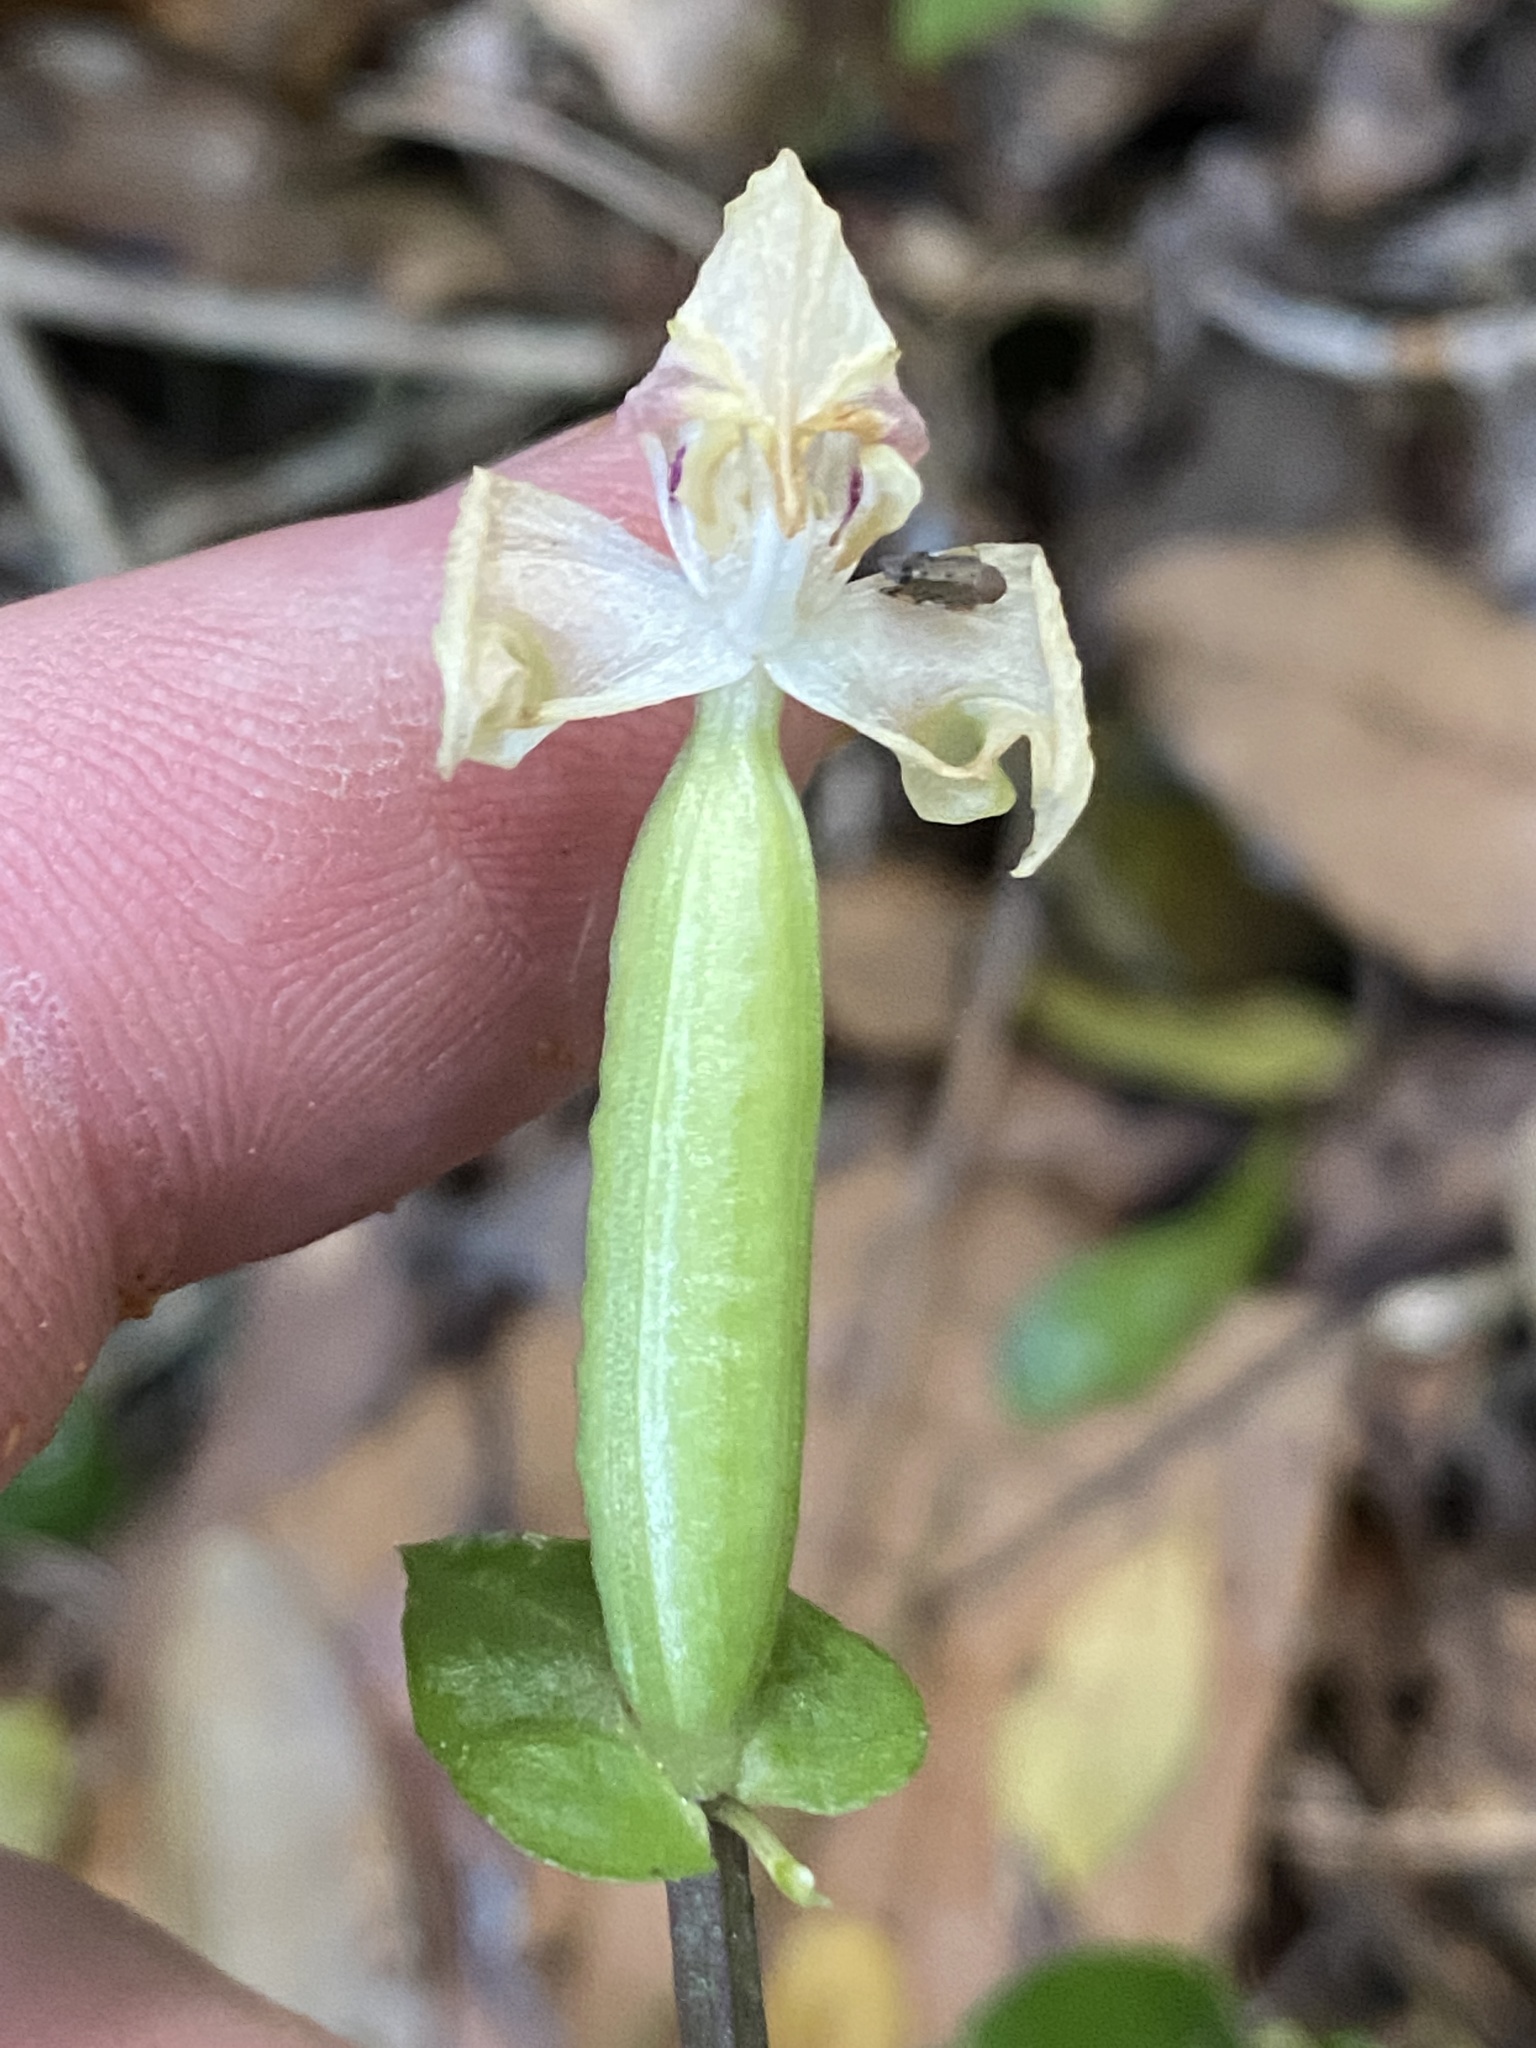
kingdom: Plantae
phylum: Tracheophyta
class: Liliopsida
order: Asparagales
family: Orchidaceae
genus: Disperis
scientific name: Disperis lindleyana
